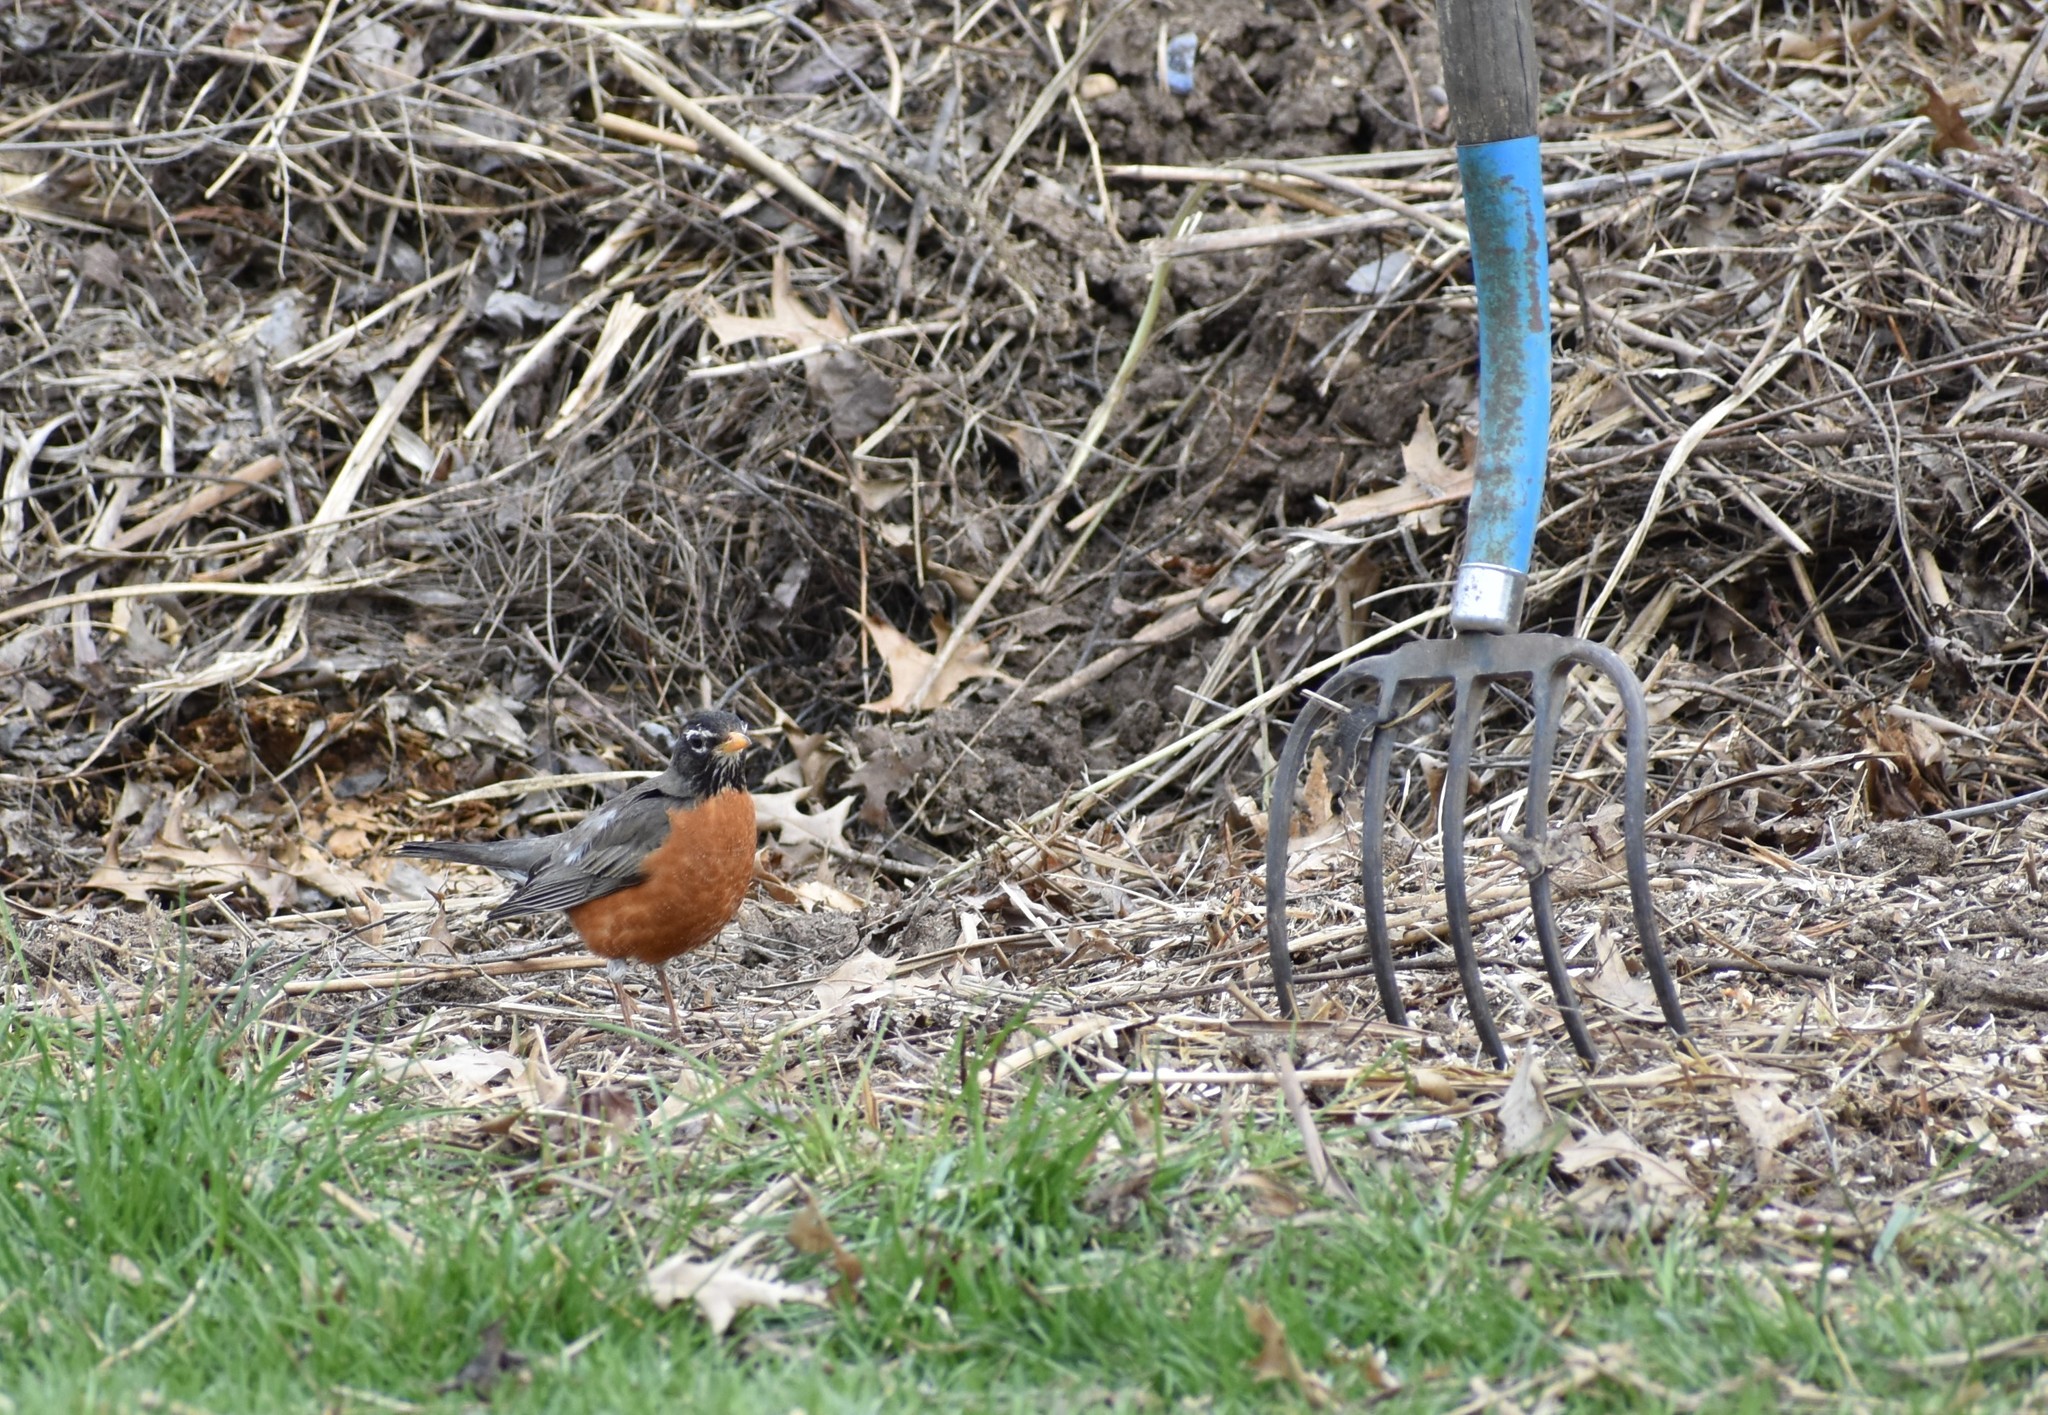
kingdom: Animalia
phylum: Chordata
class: Aves
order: Passeriformes
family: Turdidae
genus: Turdus
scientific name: Turdus migratorius
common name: American robin
